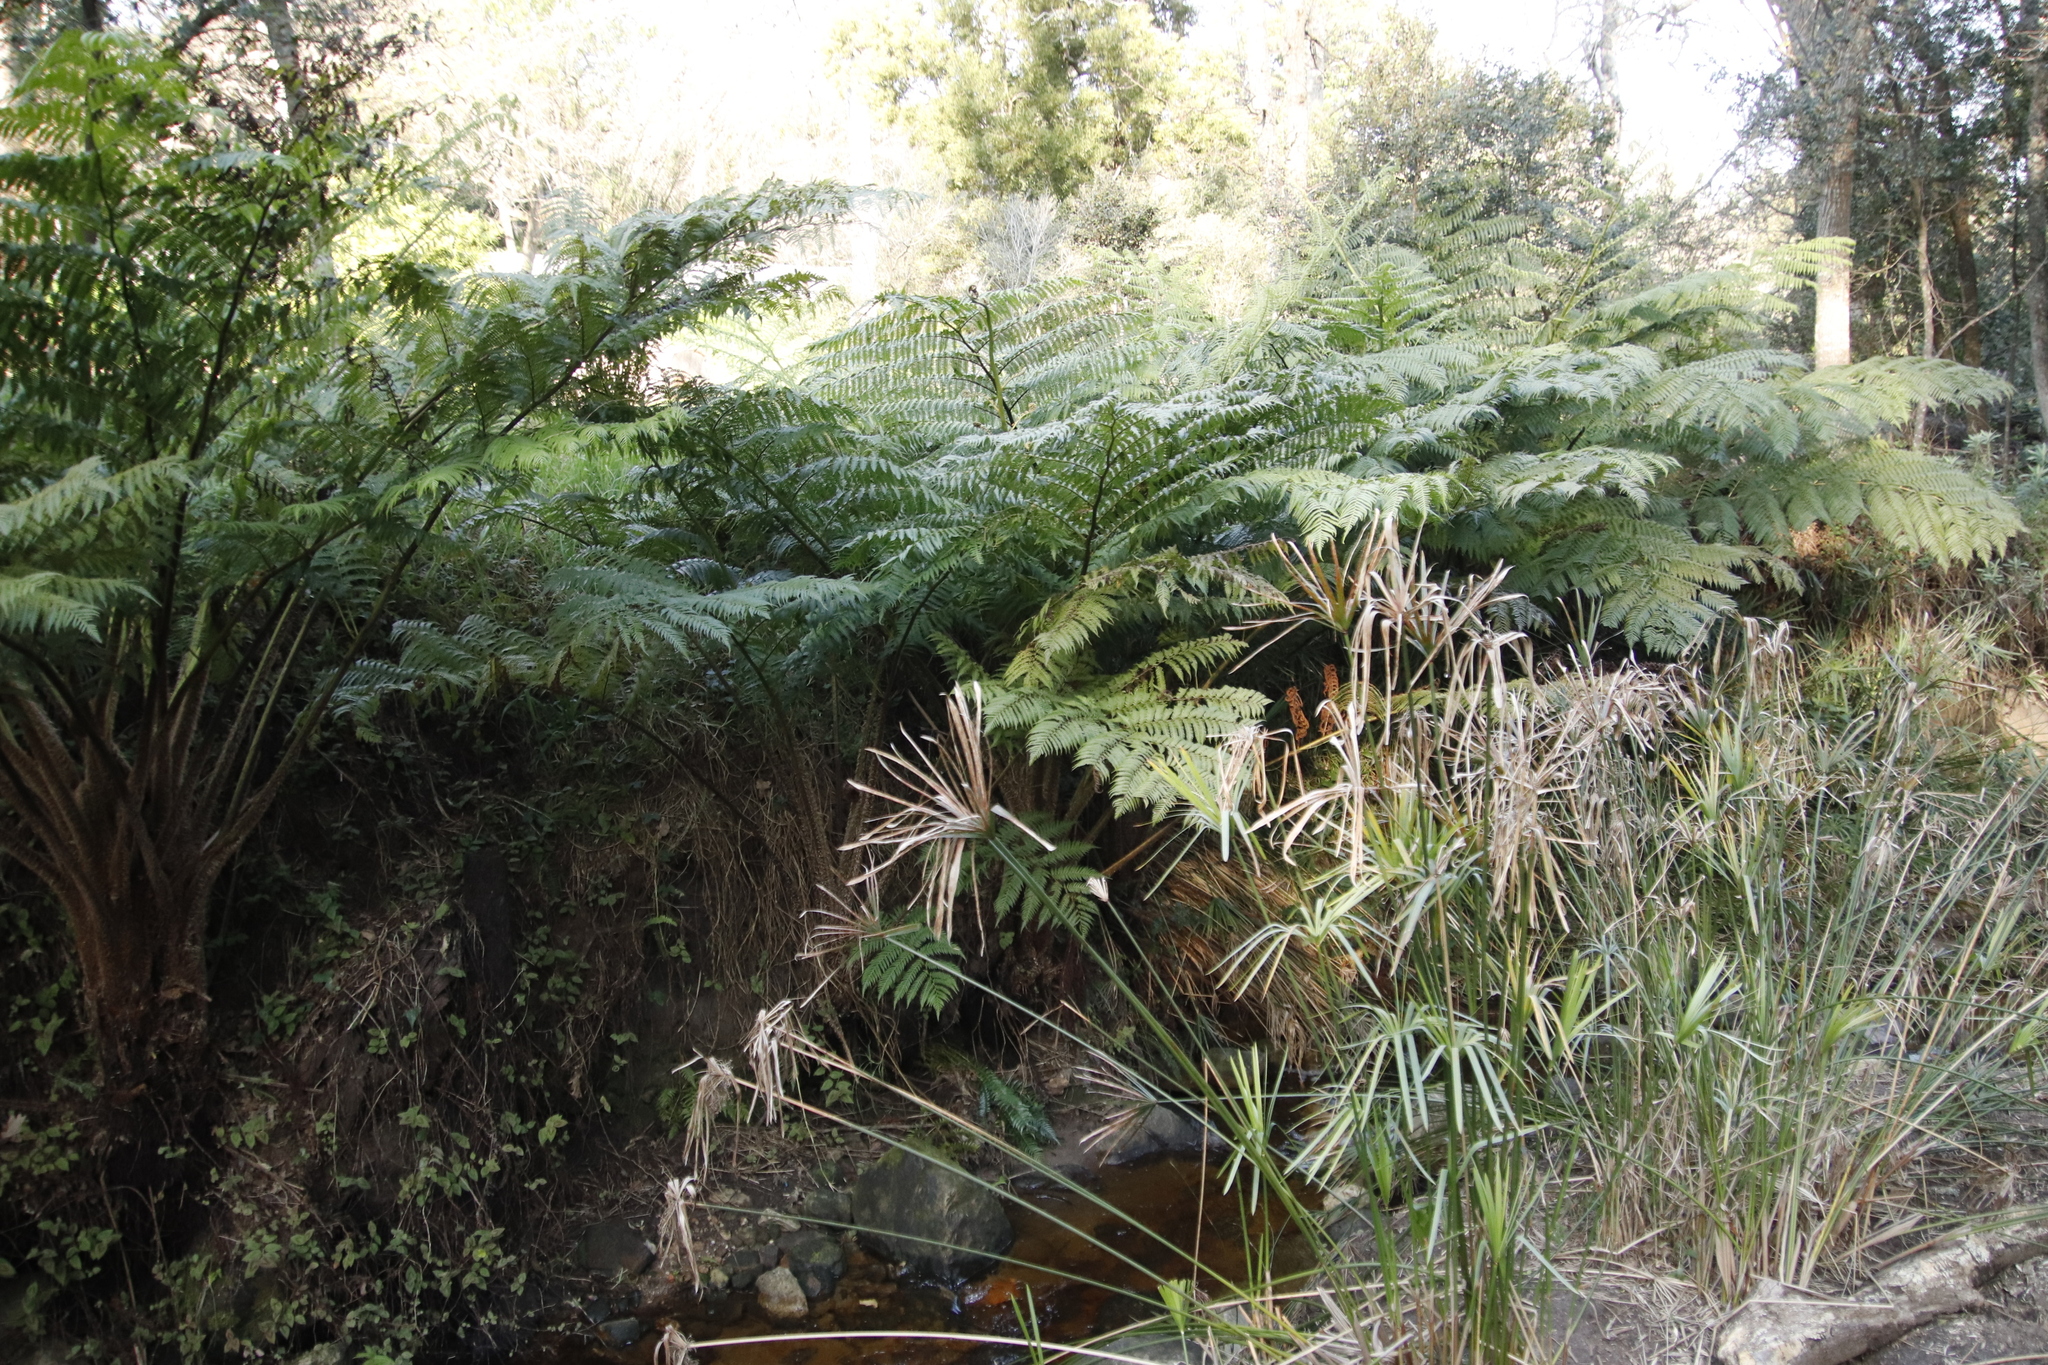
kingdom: Plantae
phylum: Tracheophyta
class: Polypodiopsida
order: Cyatheales
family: Cyatheaceae
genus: Sphaeropteris
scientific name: Sphaeropteris cooperi
